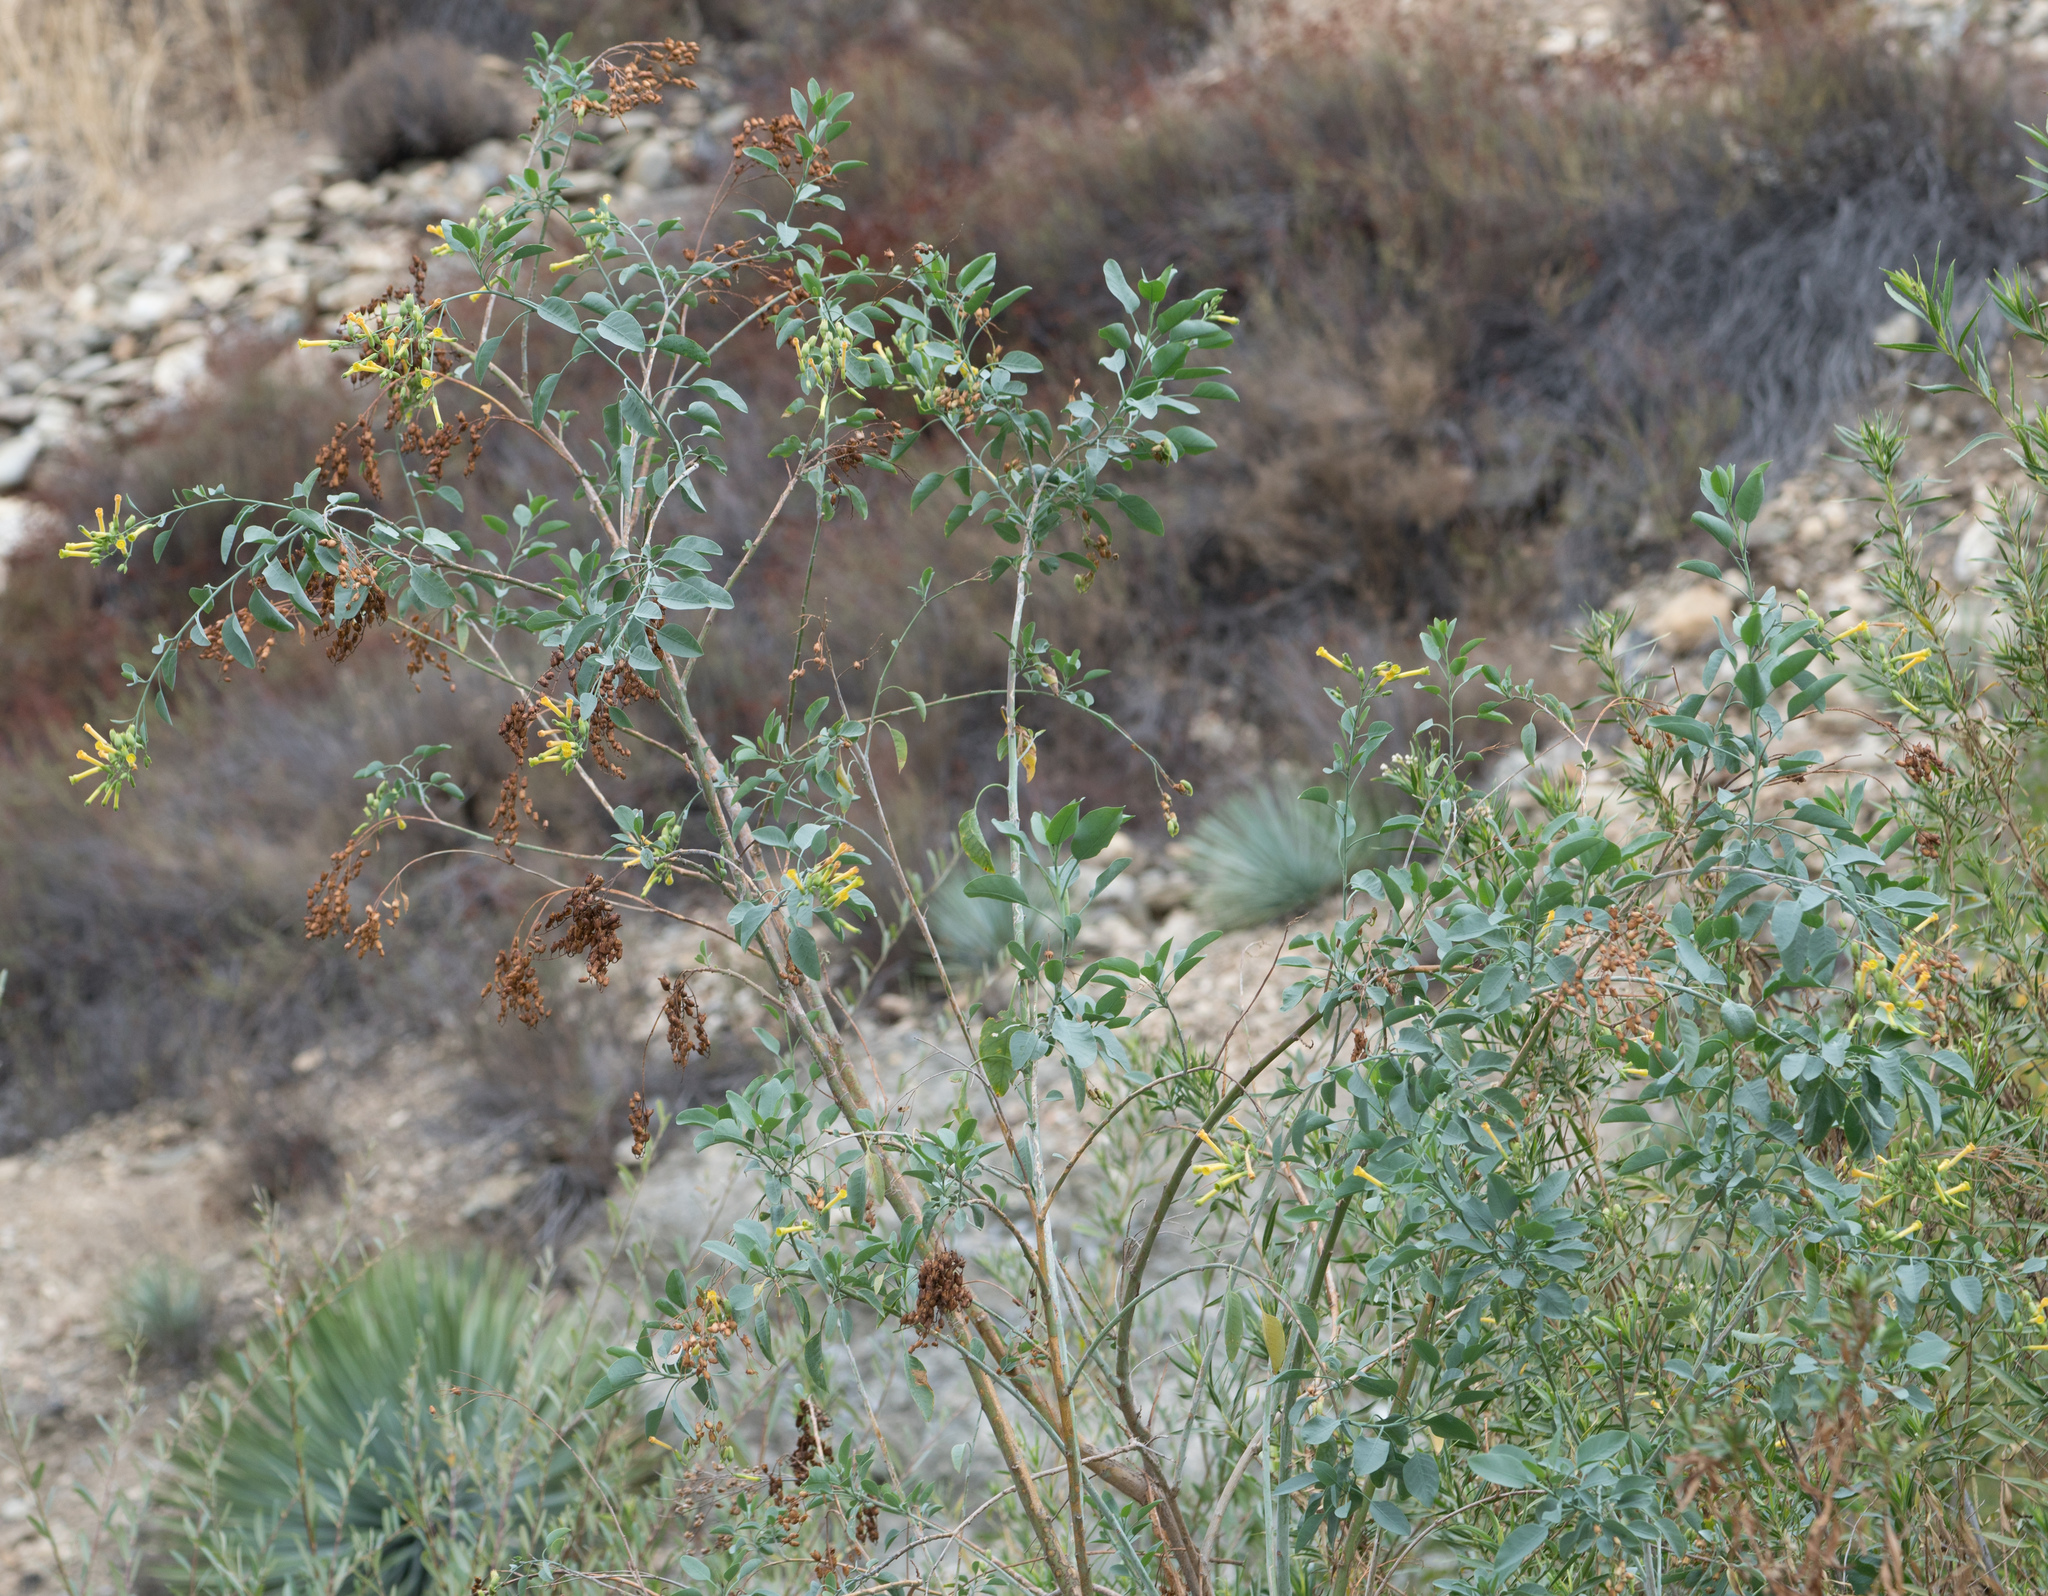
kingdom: Plantae
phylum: Tracheophyta
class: Magnoliopsida
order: Solanales
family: Solanaceae
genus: Nicotiana
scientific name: Nicotiana glauca
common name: Tree tobacco
